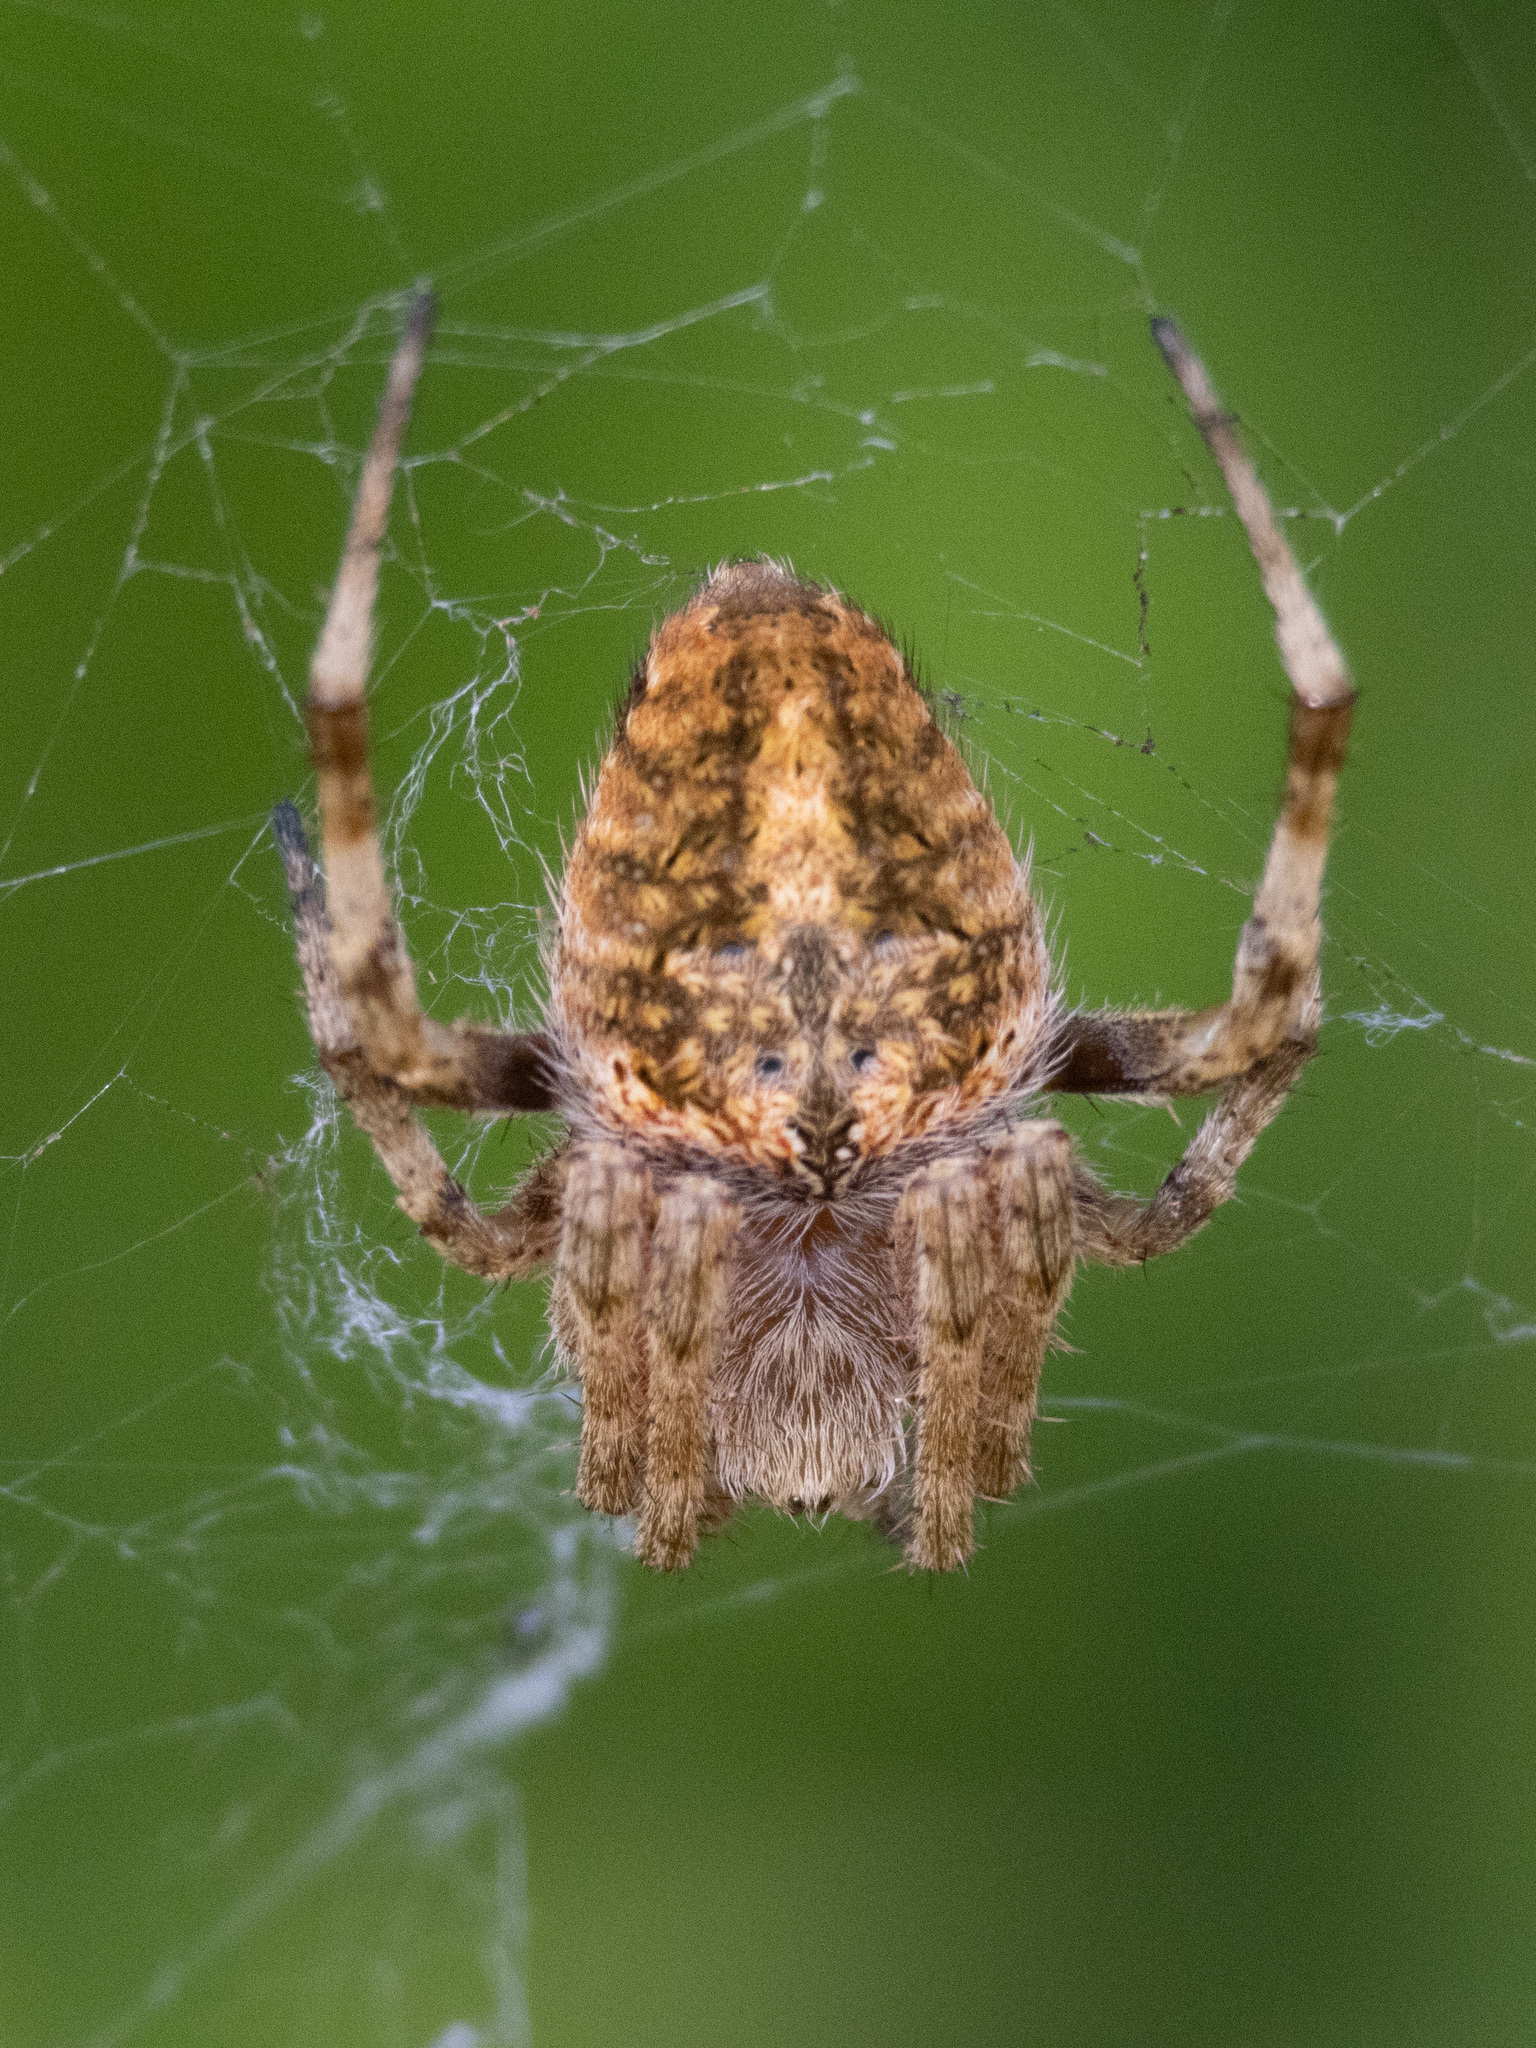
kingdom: Animalia
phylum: Arthropoda
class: Arachnida
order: Araneae
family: Araneidae
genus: Neoscona
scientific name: Neoscona crucifera
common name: Spotted orbweaver
